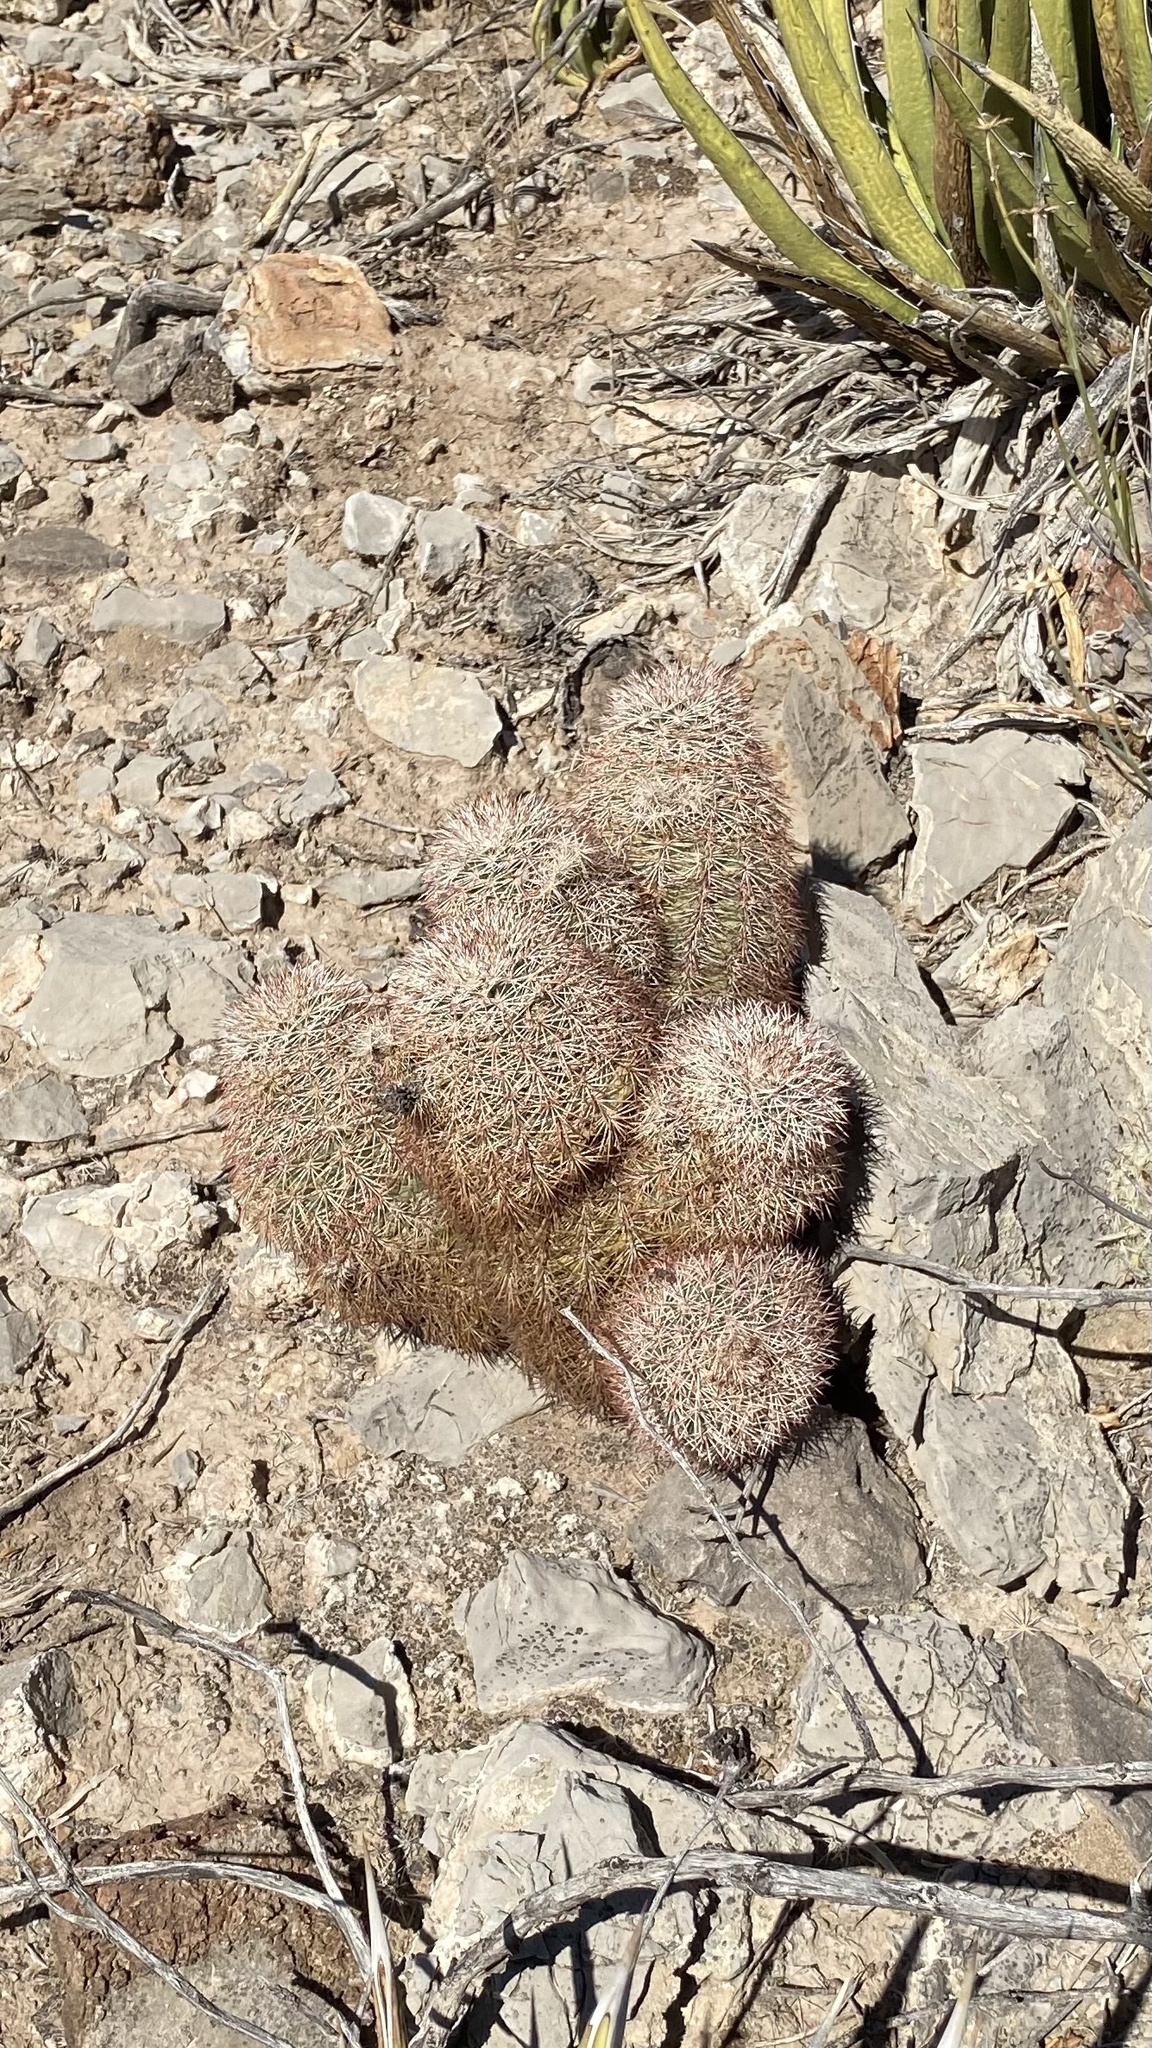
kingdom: Plantae
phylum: Tracheophyta
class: Magnoliopsida
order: Caryophyllales
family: Cactaceae
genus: Echinocereus
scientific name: Echinocereus dasyacanthus
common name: Spiny hedgehog cactus
